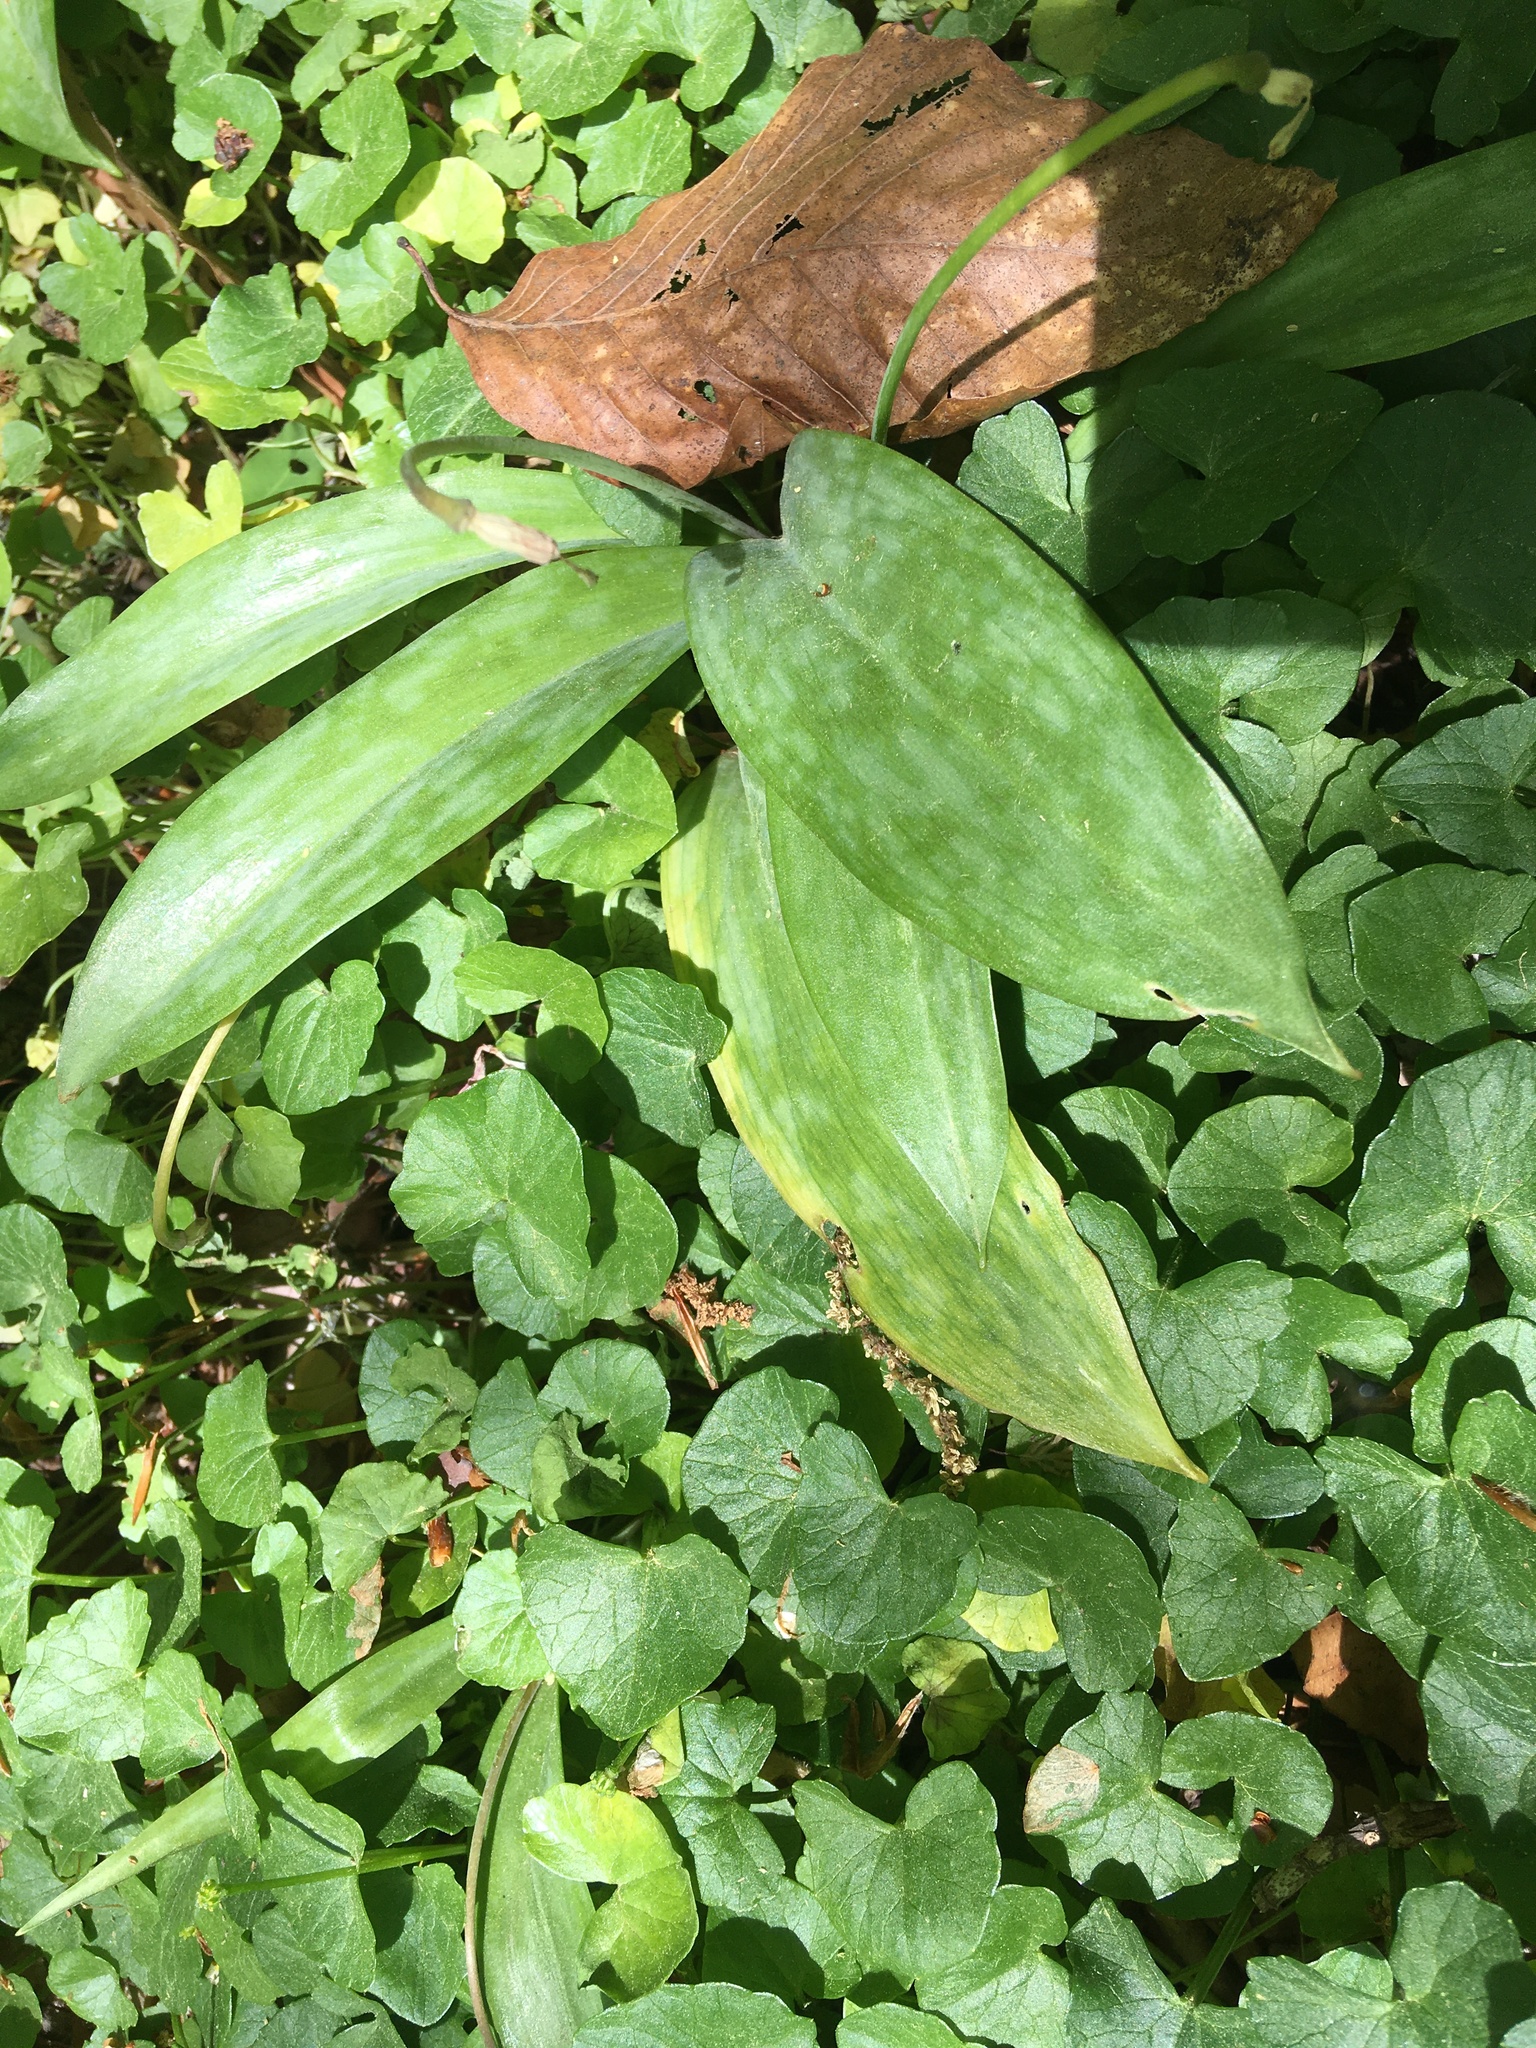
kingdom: Plantae
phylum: Tracheophyta
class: Liliopsida
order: Liliales
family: Liliaceae
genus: Erythronium
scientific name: Erythronium americanum
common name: Yellow adder's-tongue
